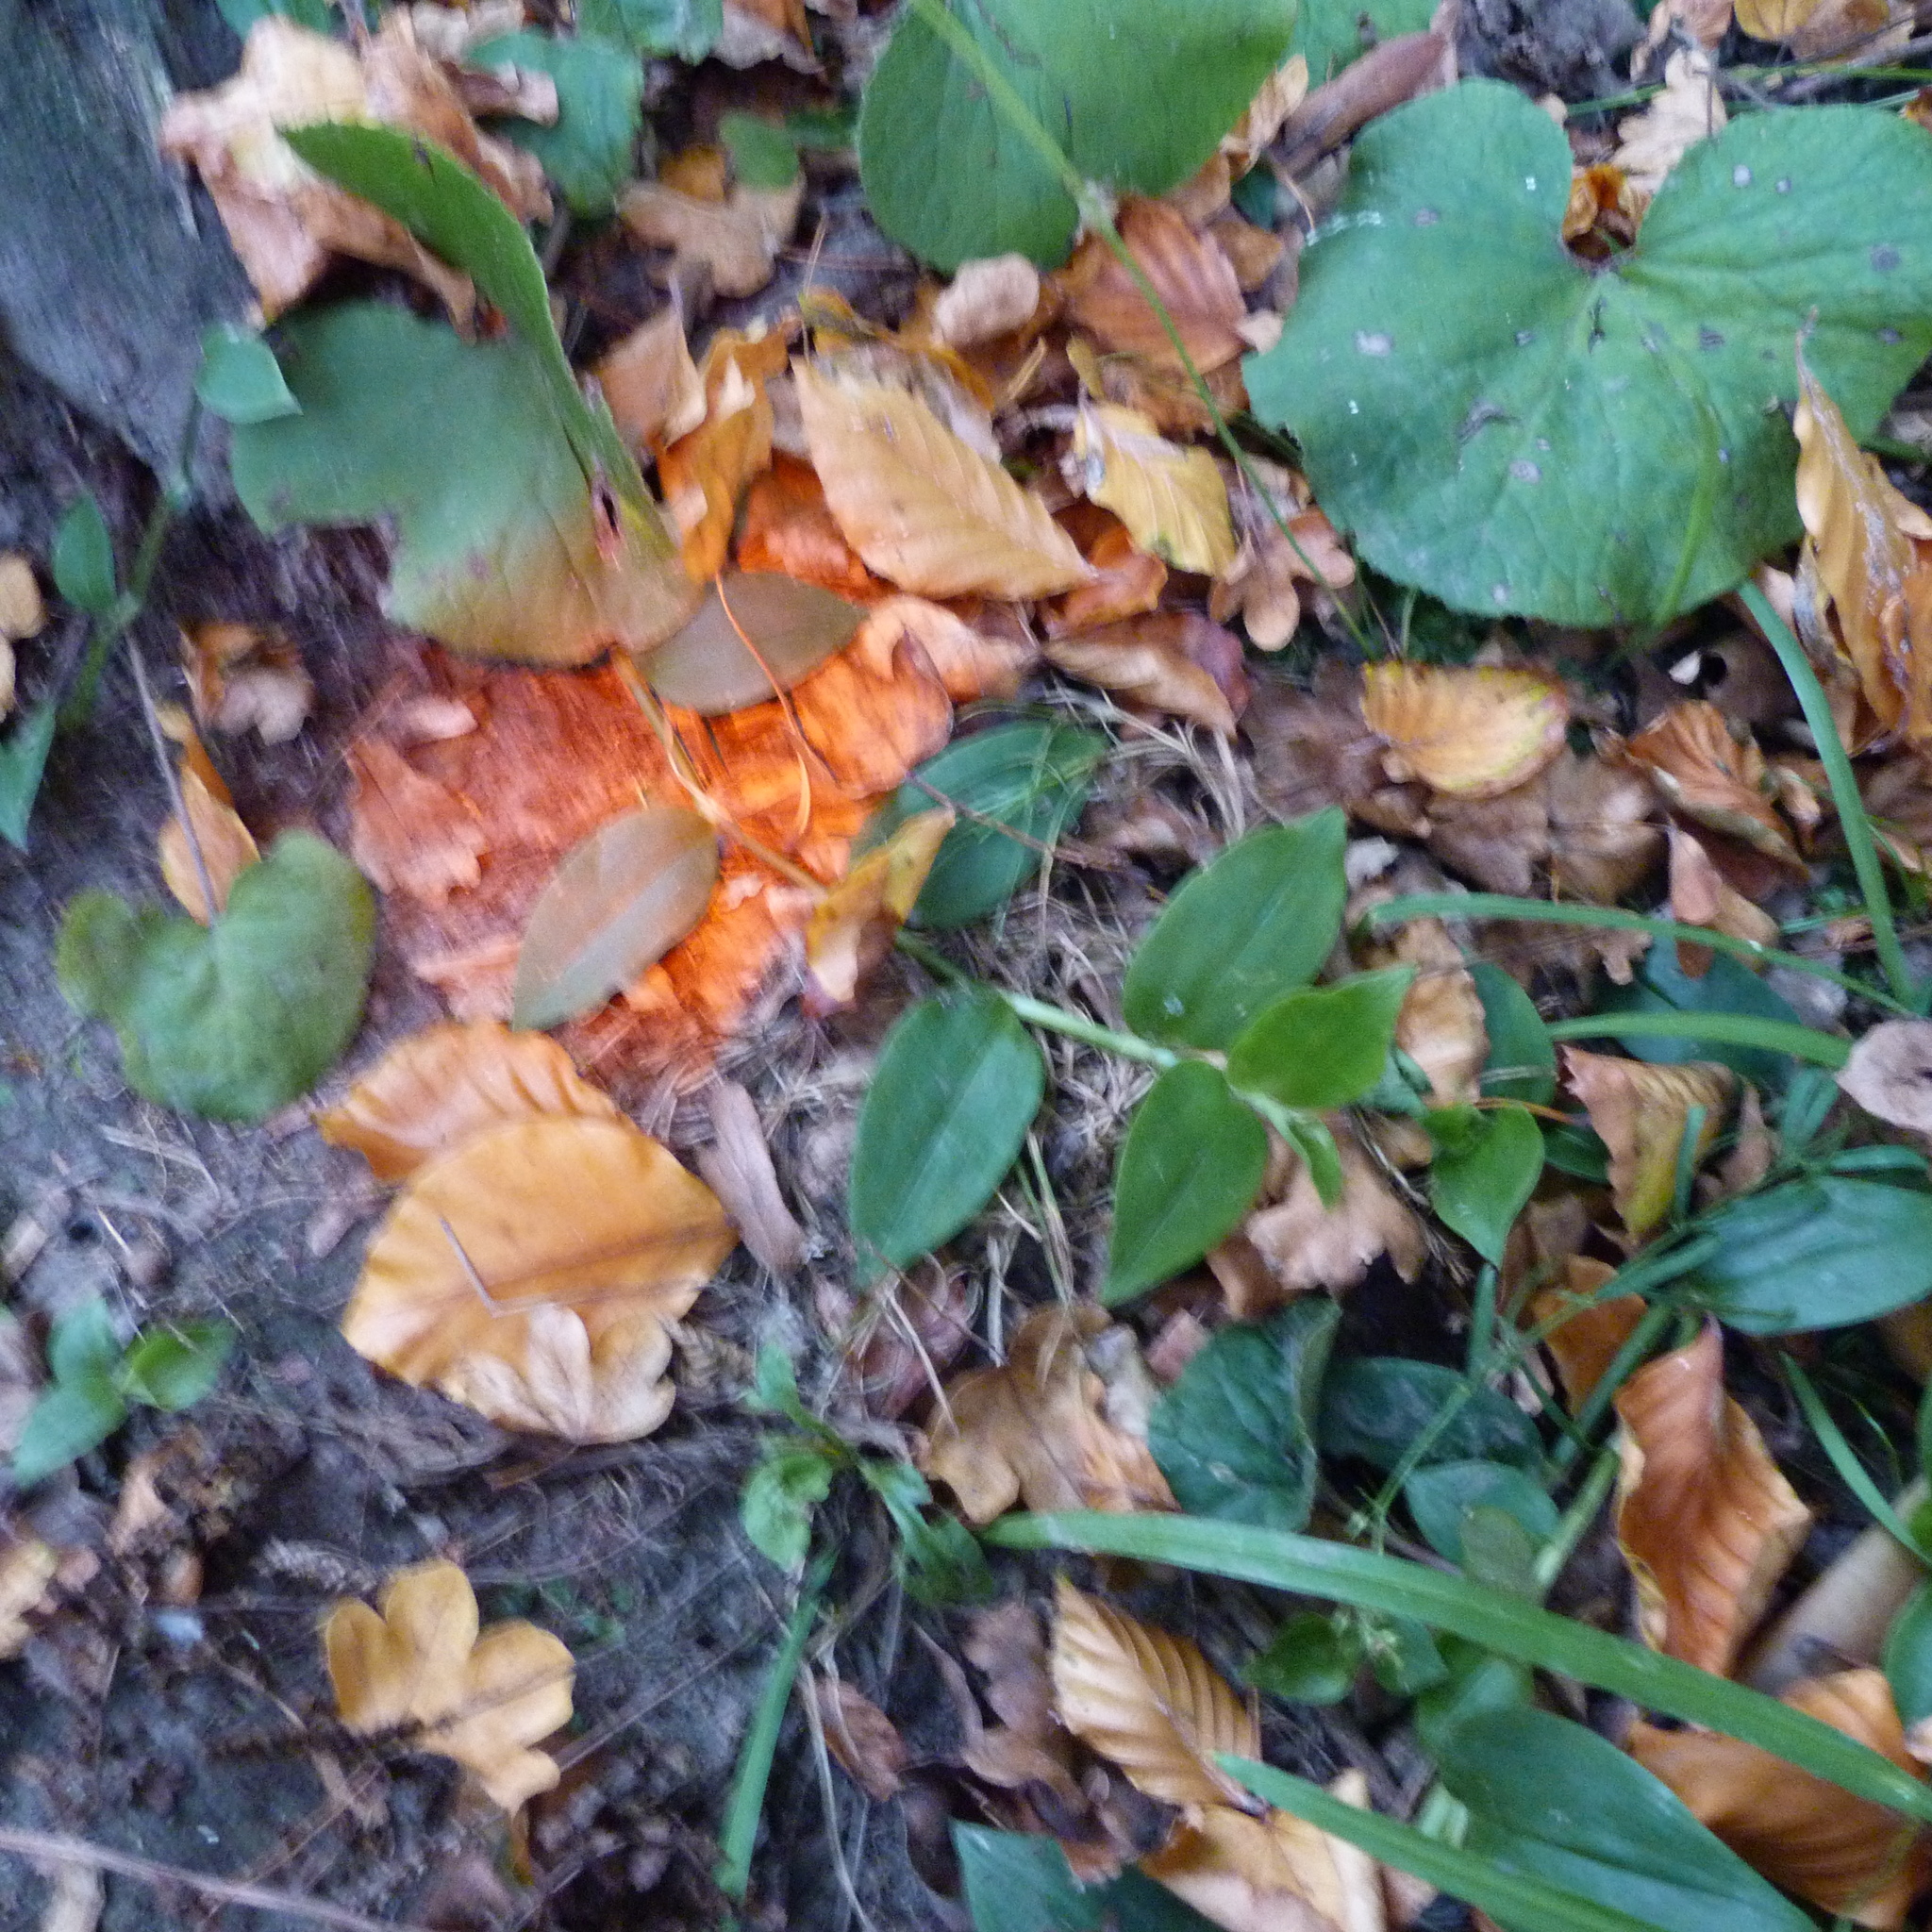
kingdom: Plantae
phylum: Tracheophyta
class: Liliopsida
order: Commelinales
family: Commelinaceae
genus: Tradescantia
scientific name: Tradescantia fluminensis
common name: Wandering-jew
